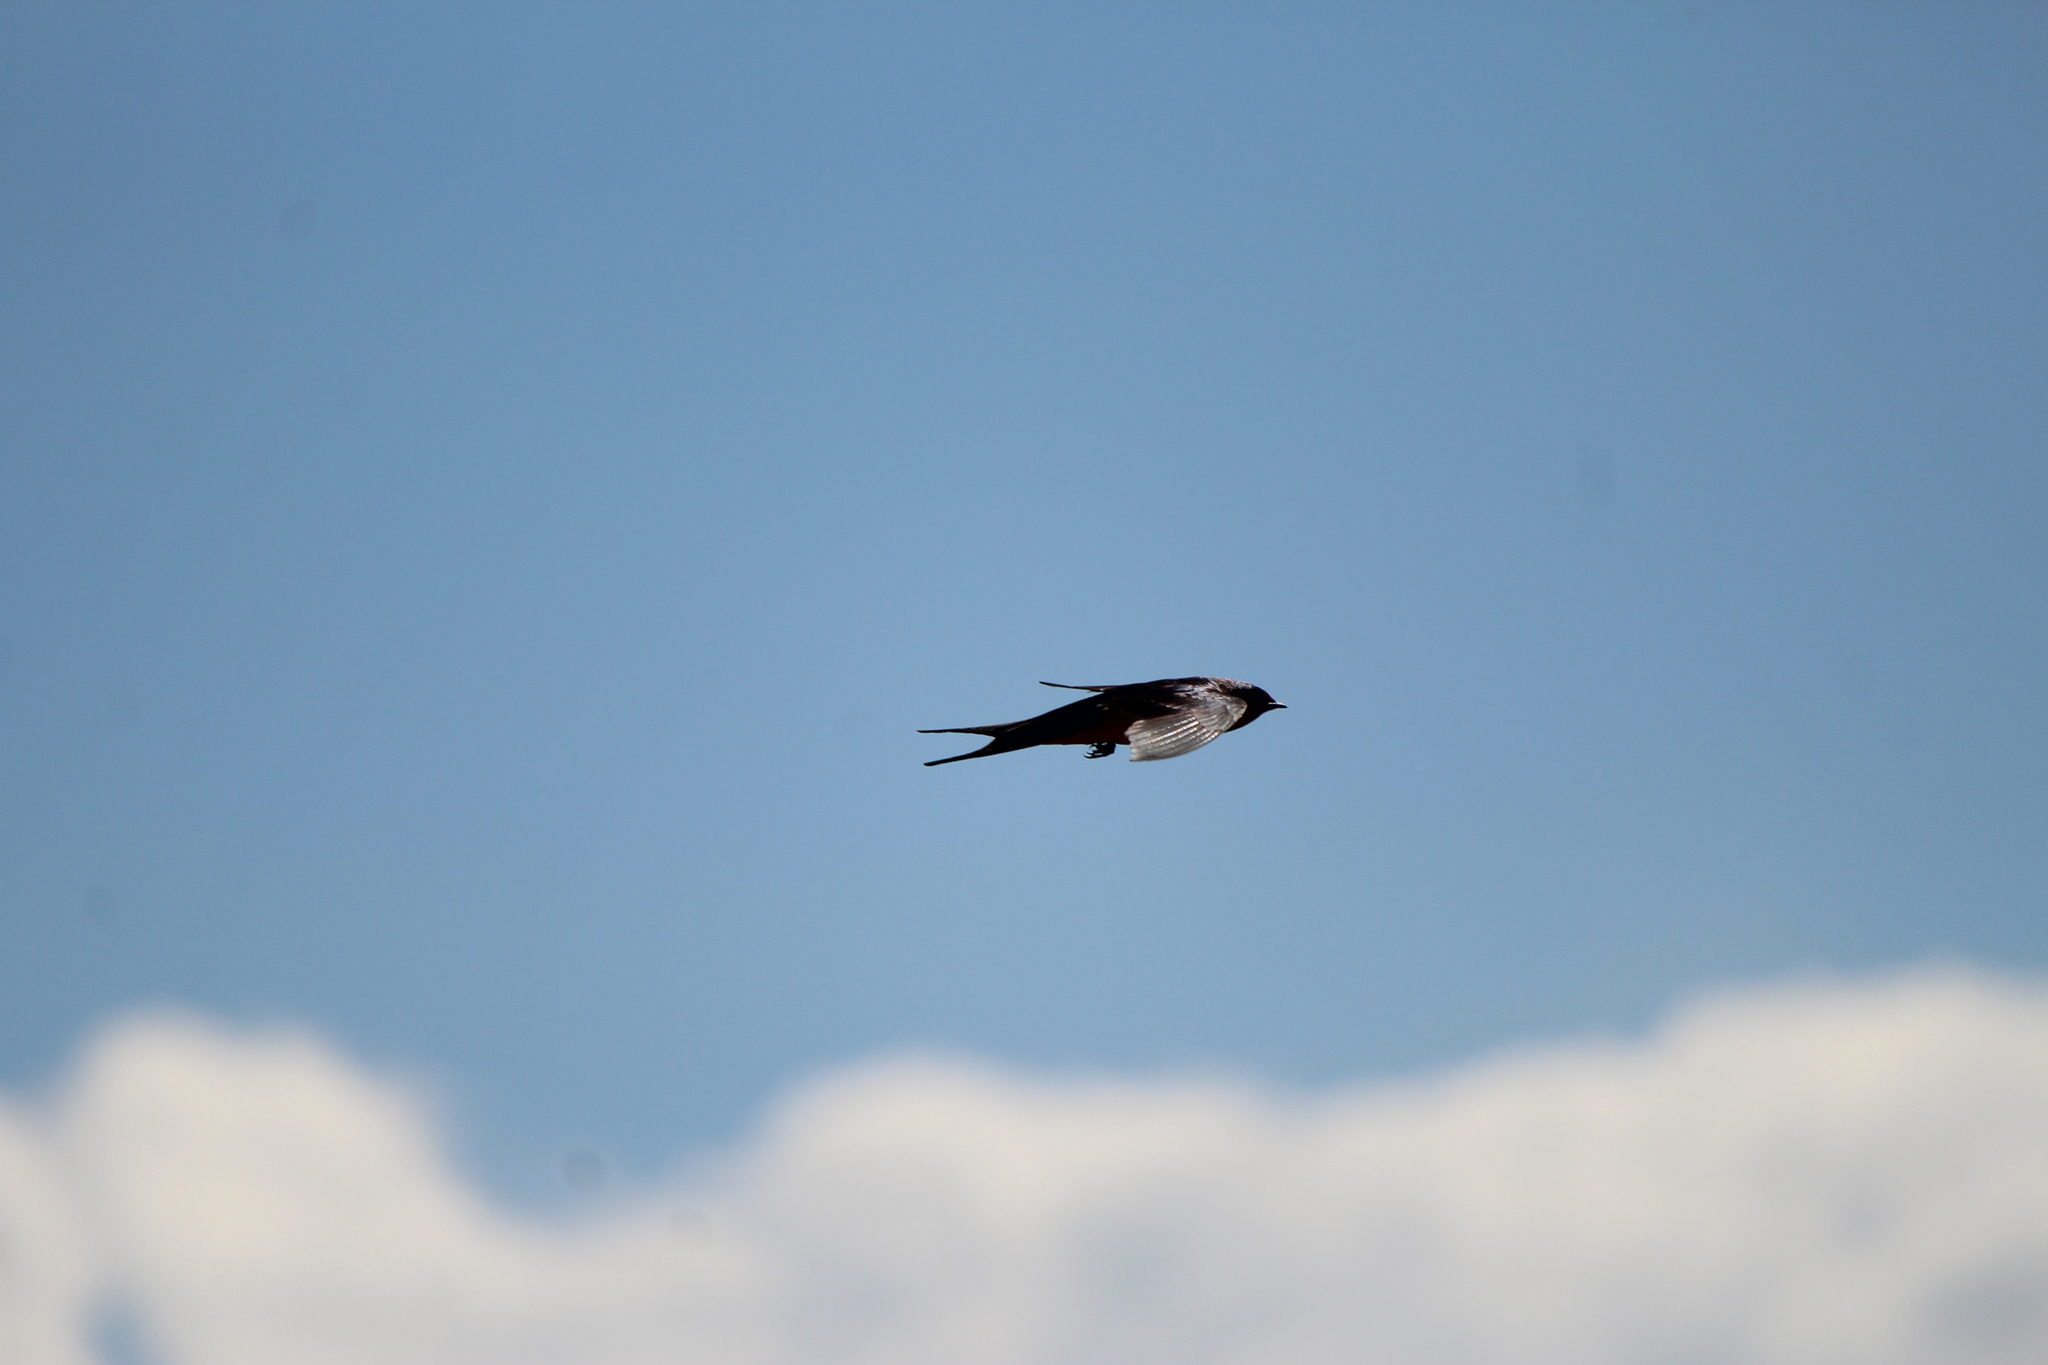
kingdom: Animalia
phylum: Chordata
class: Aves
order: Passeriformes
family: Hirundinidae
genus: Hirundo
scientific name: Hirundo rustica
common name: Barn swallow
